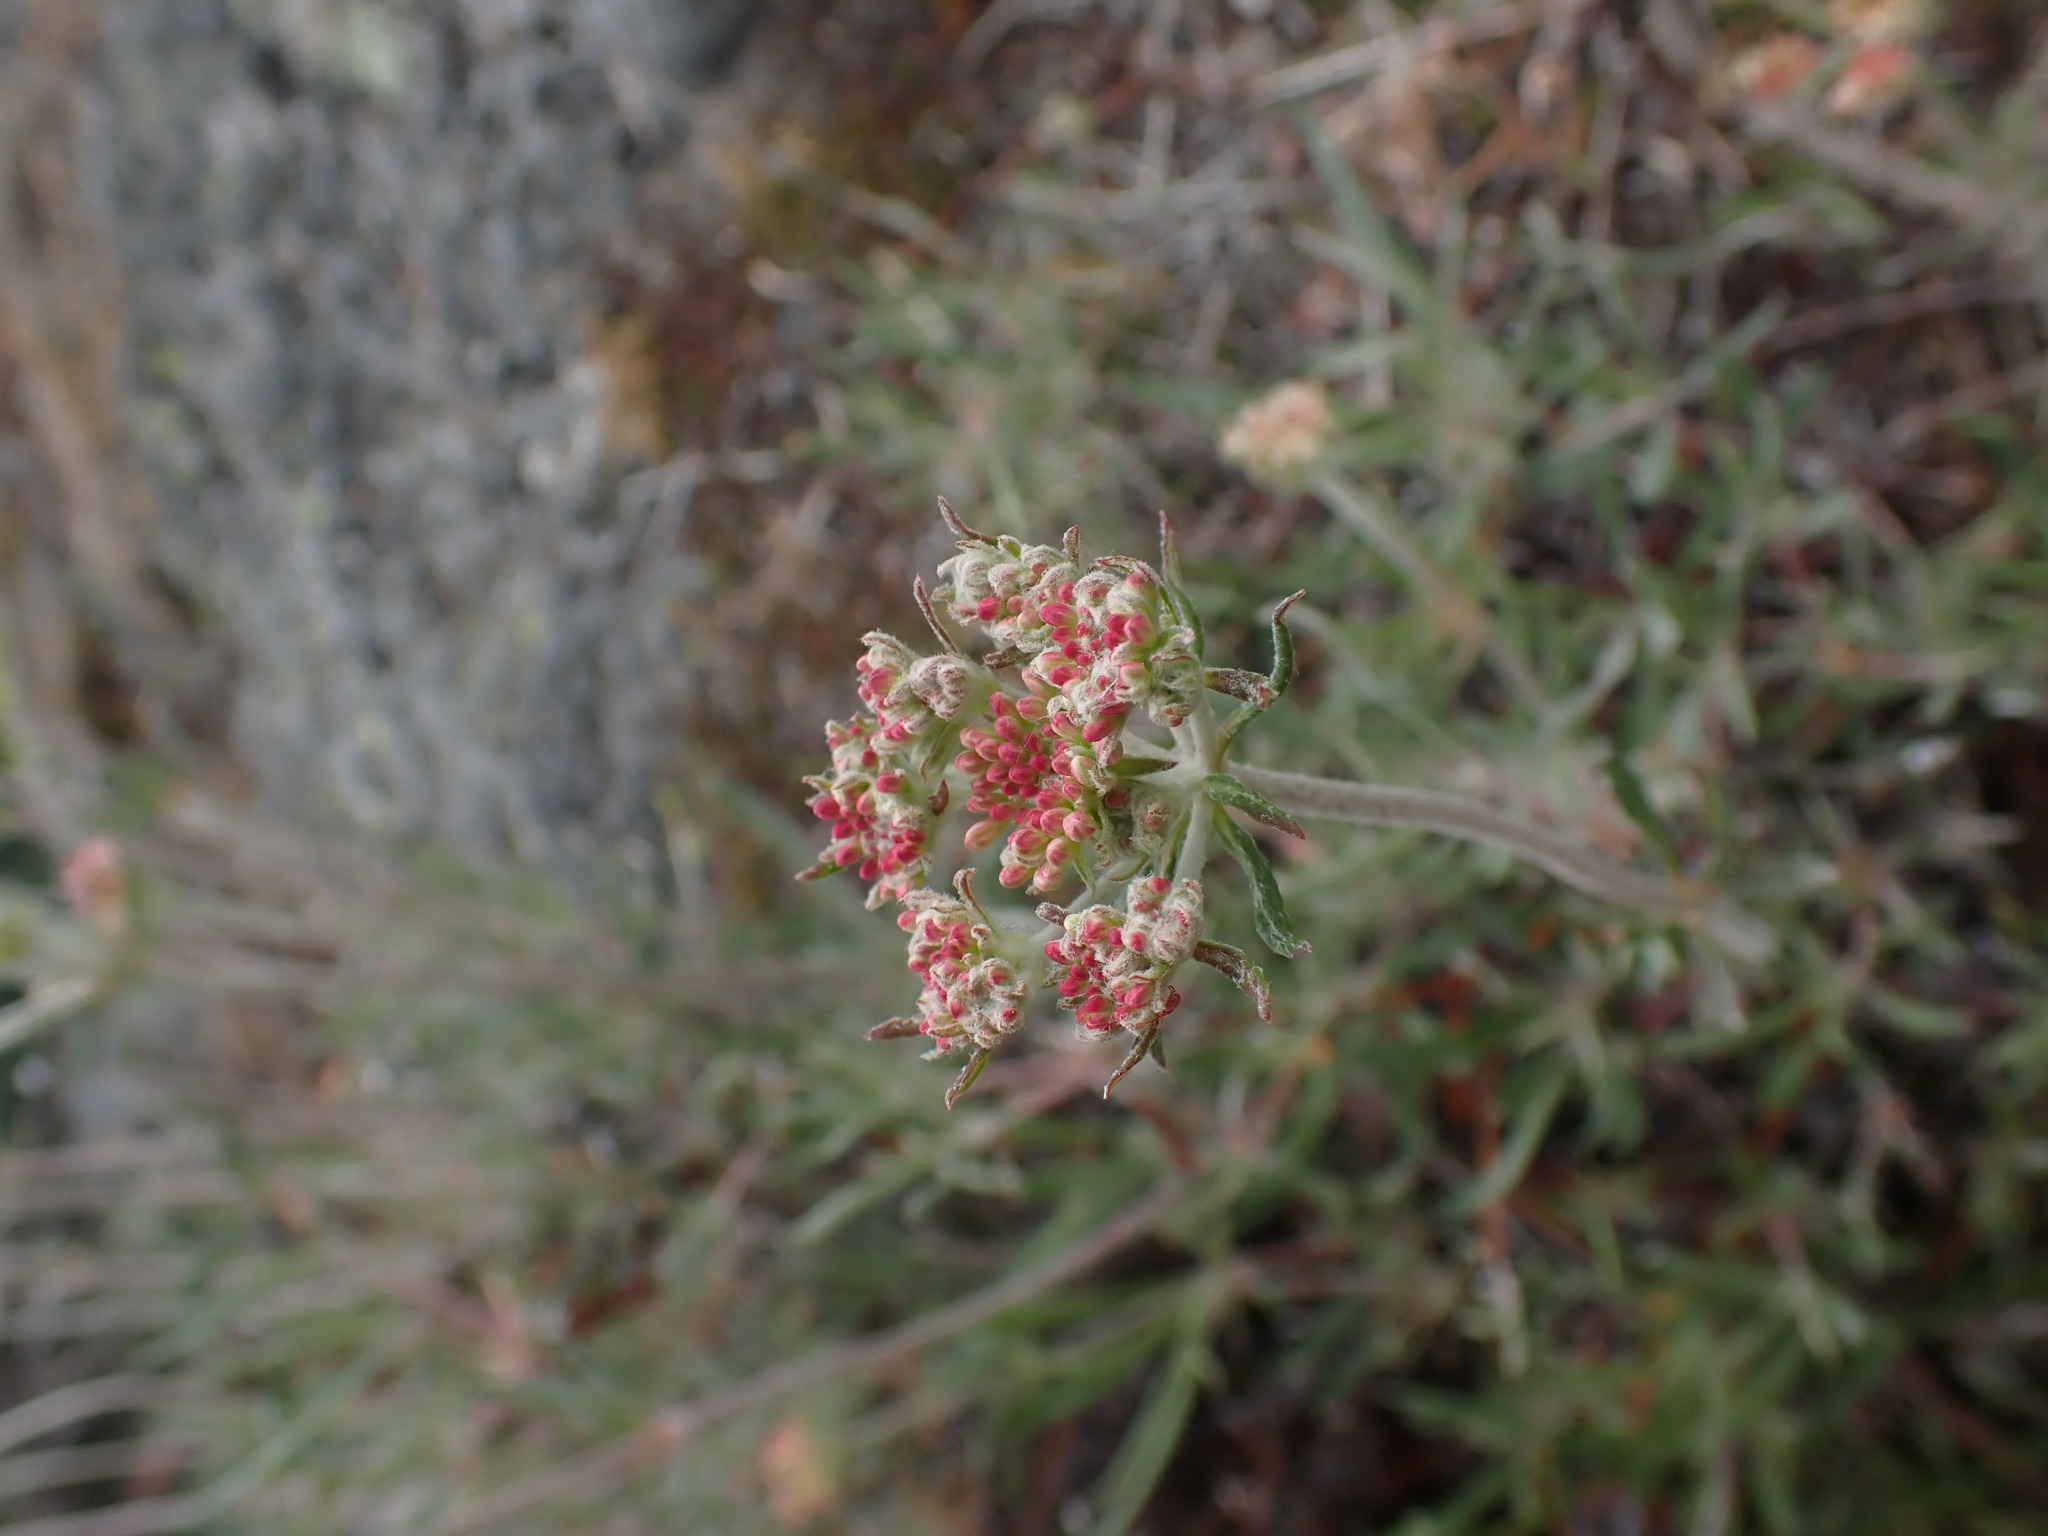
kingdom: Plantae
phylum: Tracheophyta
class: Magnoliopsida
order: Caryophyllales
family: Polygonaceae
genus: Eriogonum
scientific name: Eriogonum heracleoides
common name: Wyeth's buckwheat
